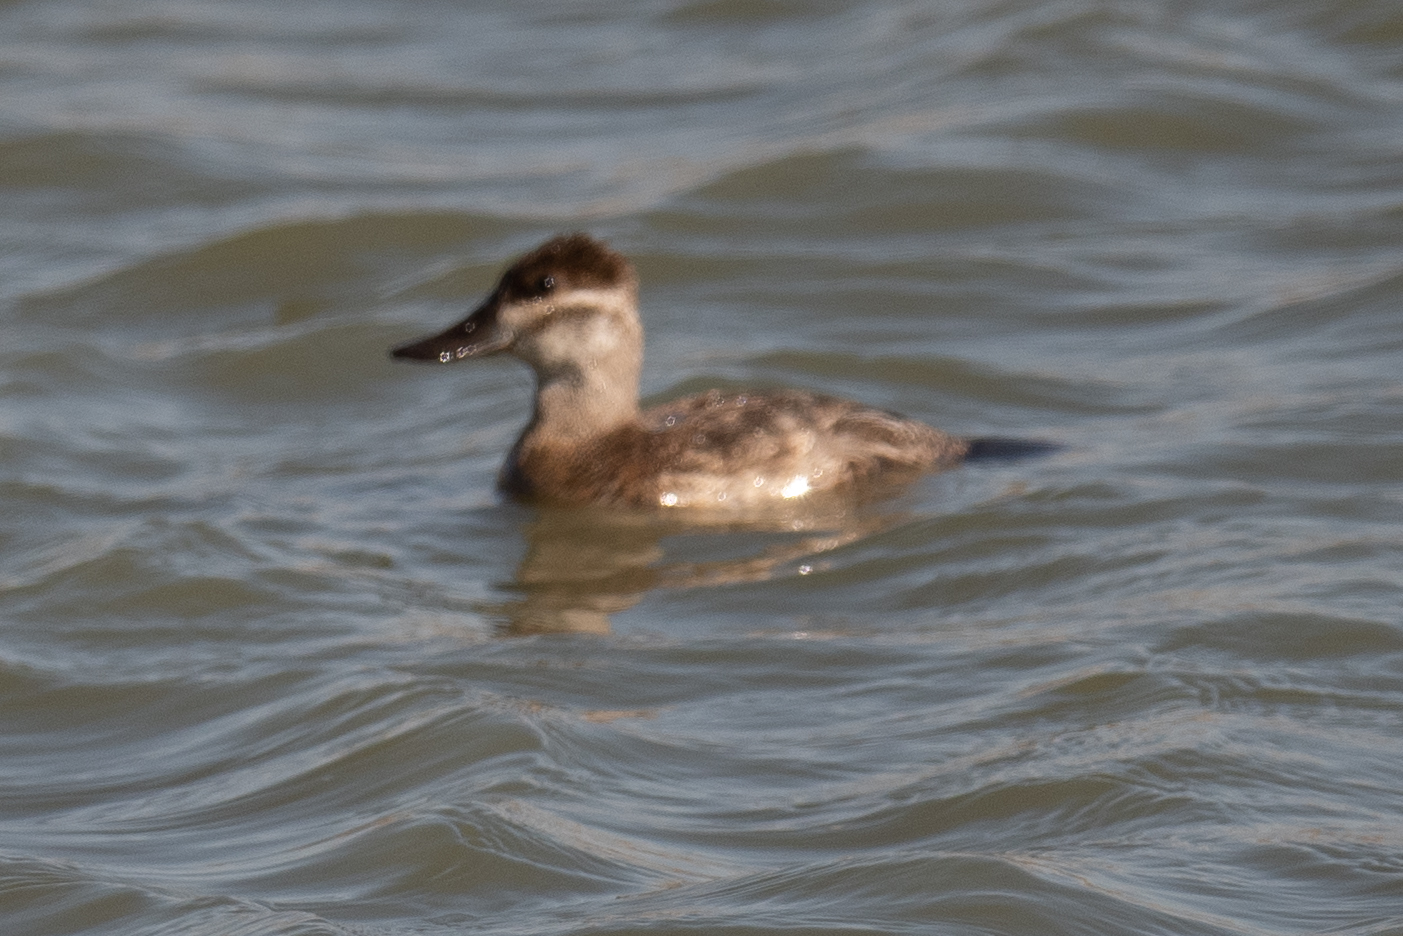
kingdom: Animalia
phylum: Chordata
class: Aves
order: Anseriformes
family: Anatidae
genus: Oxyura
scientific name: Oxyura jamaicensis
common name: Ruddy duck
